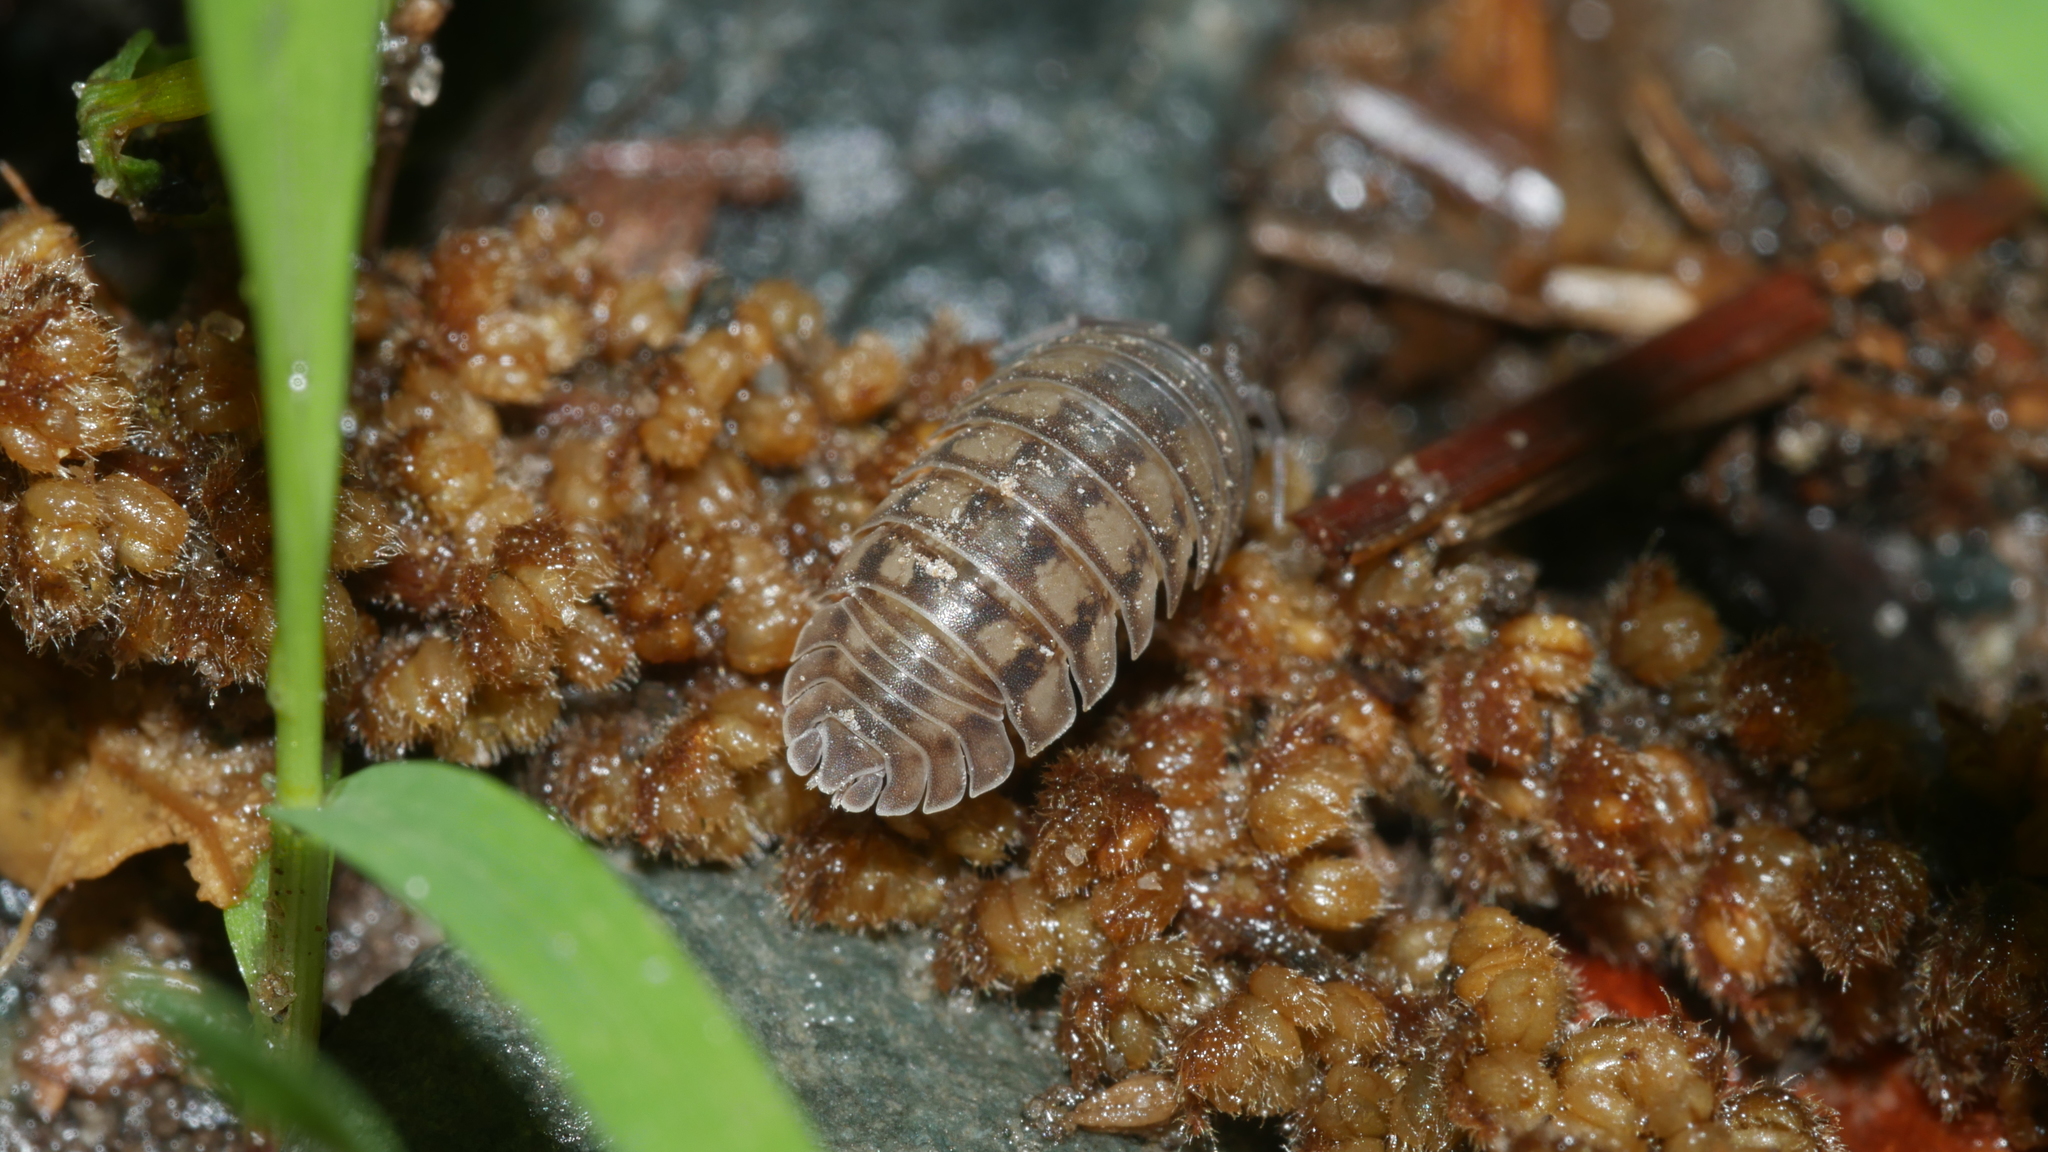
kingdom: Animalia
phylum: Arthropoda
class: Malacostraca
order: Isopoda
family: Armadillidiidae
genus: Armadillidium
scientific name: Armadillidium nasatum
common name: Isopod
